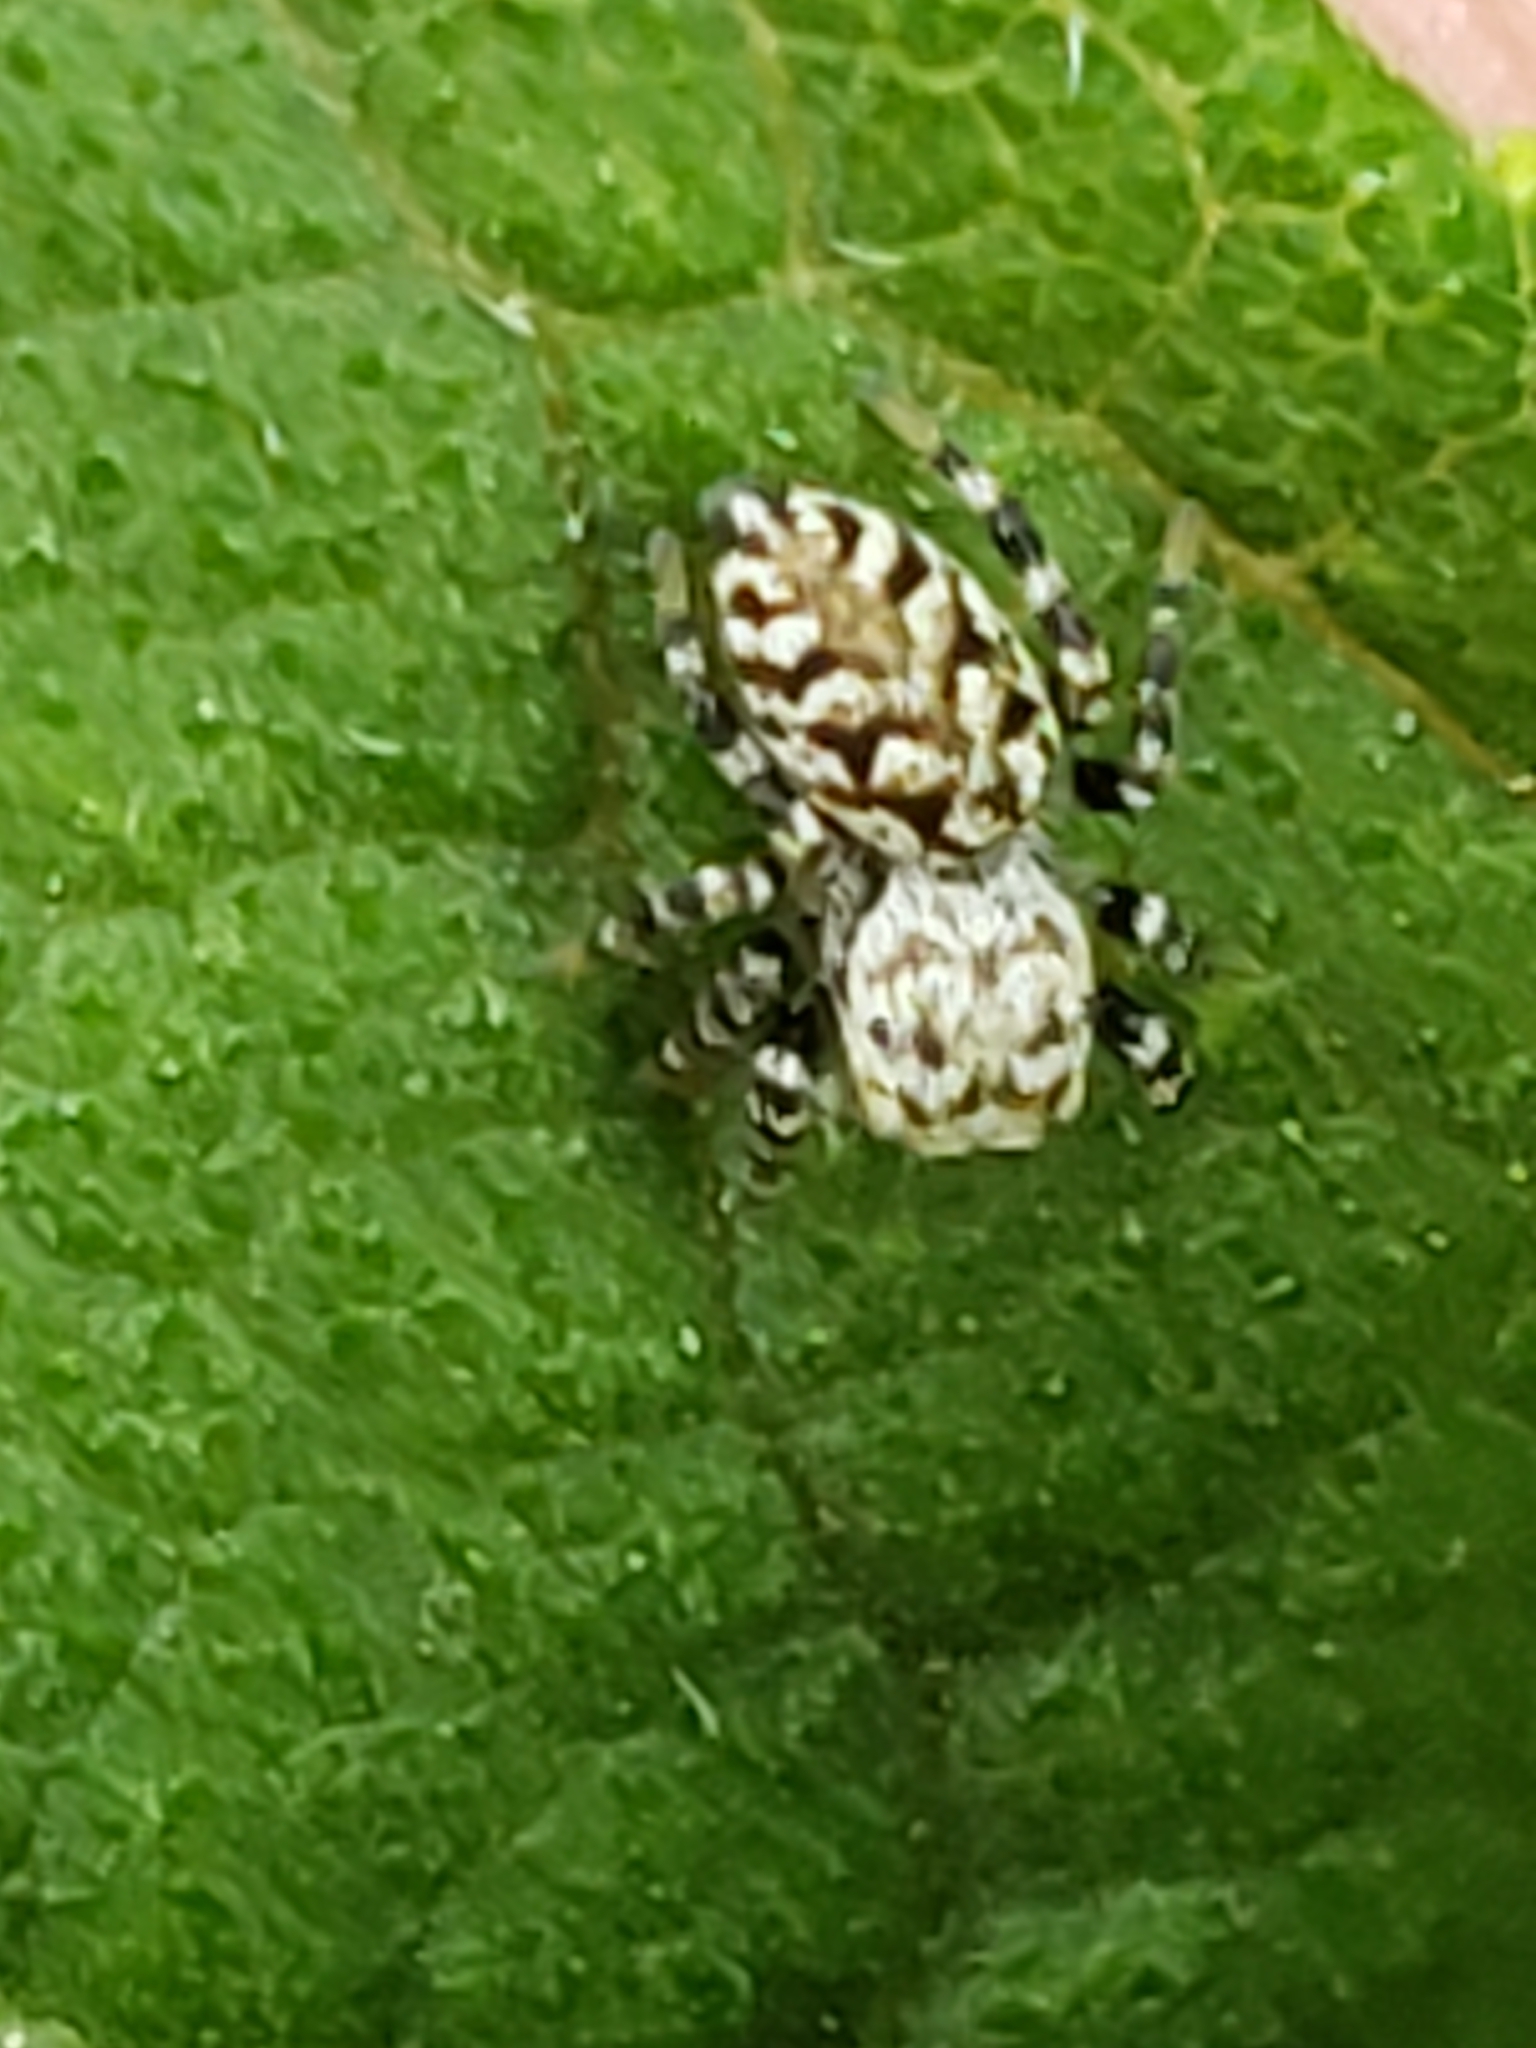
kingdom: Animalia
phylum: Arthropoda
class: Arachnida
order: Araneae
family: Salticidae
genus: Pelegrina
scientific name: Pelegrina galathea
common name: Jumping spiders
